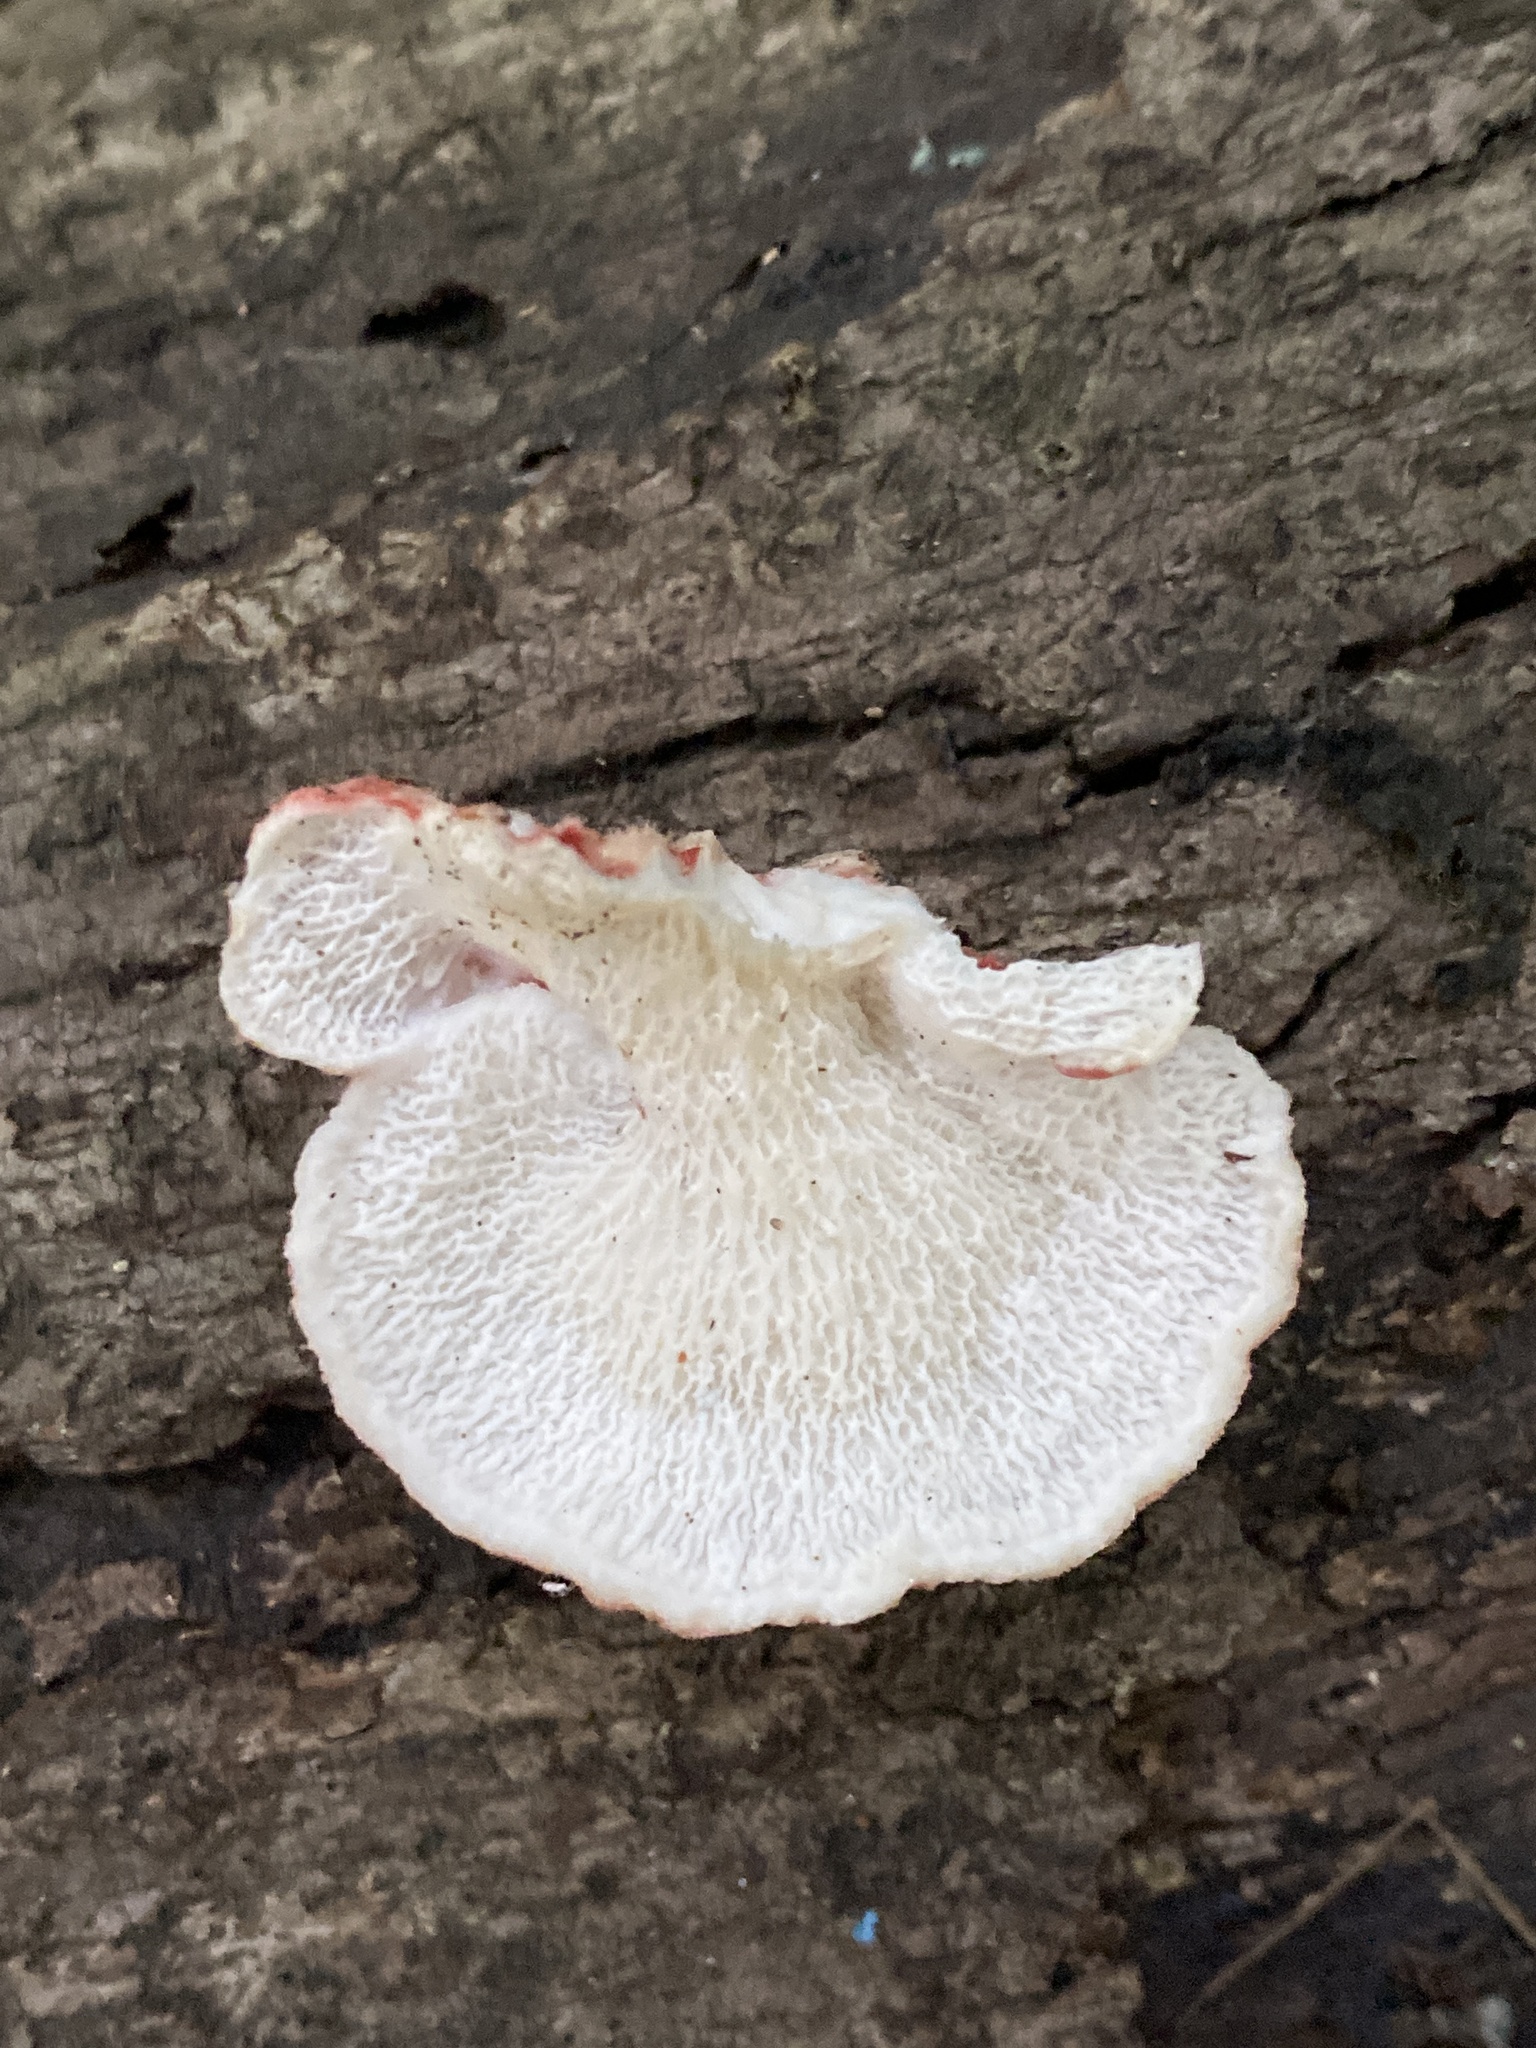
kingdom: Fungi
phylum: Basidiomycota
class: Agaricomycetes
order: Polyporales
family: Irpicaceae
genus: Byssomerulius
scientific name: Byssomerulius incarnatus
